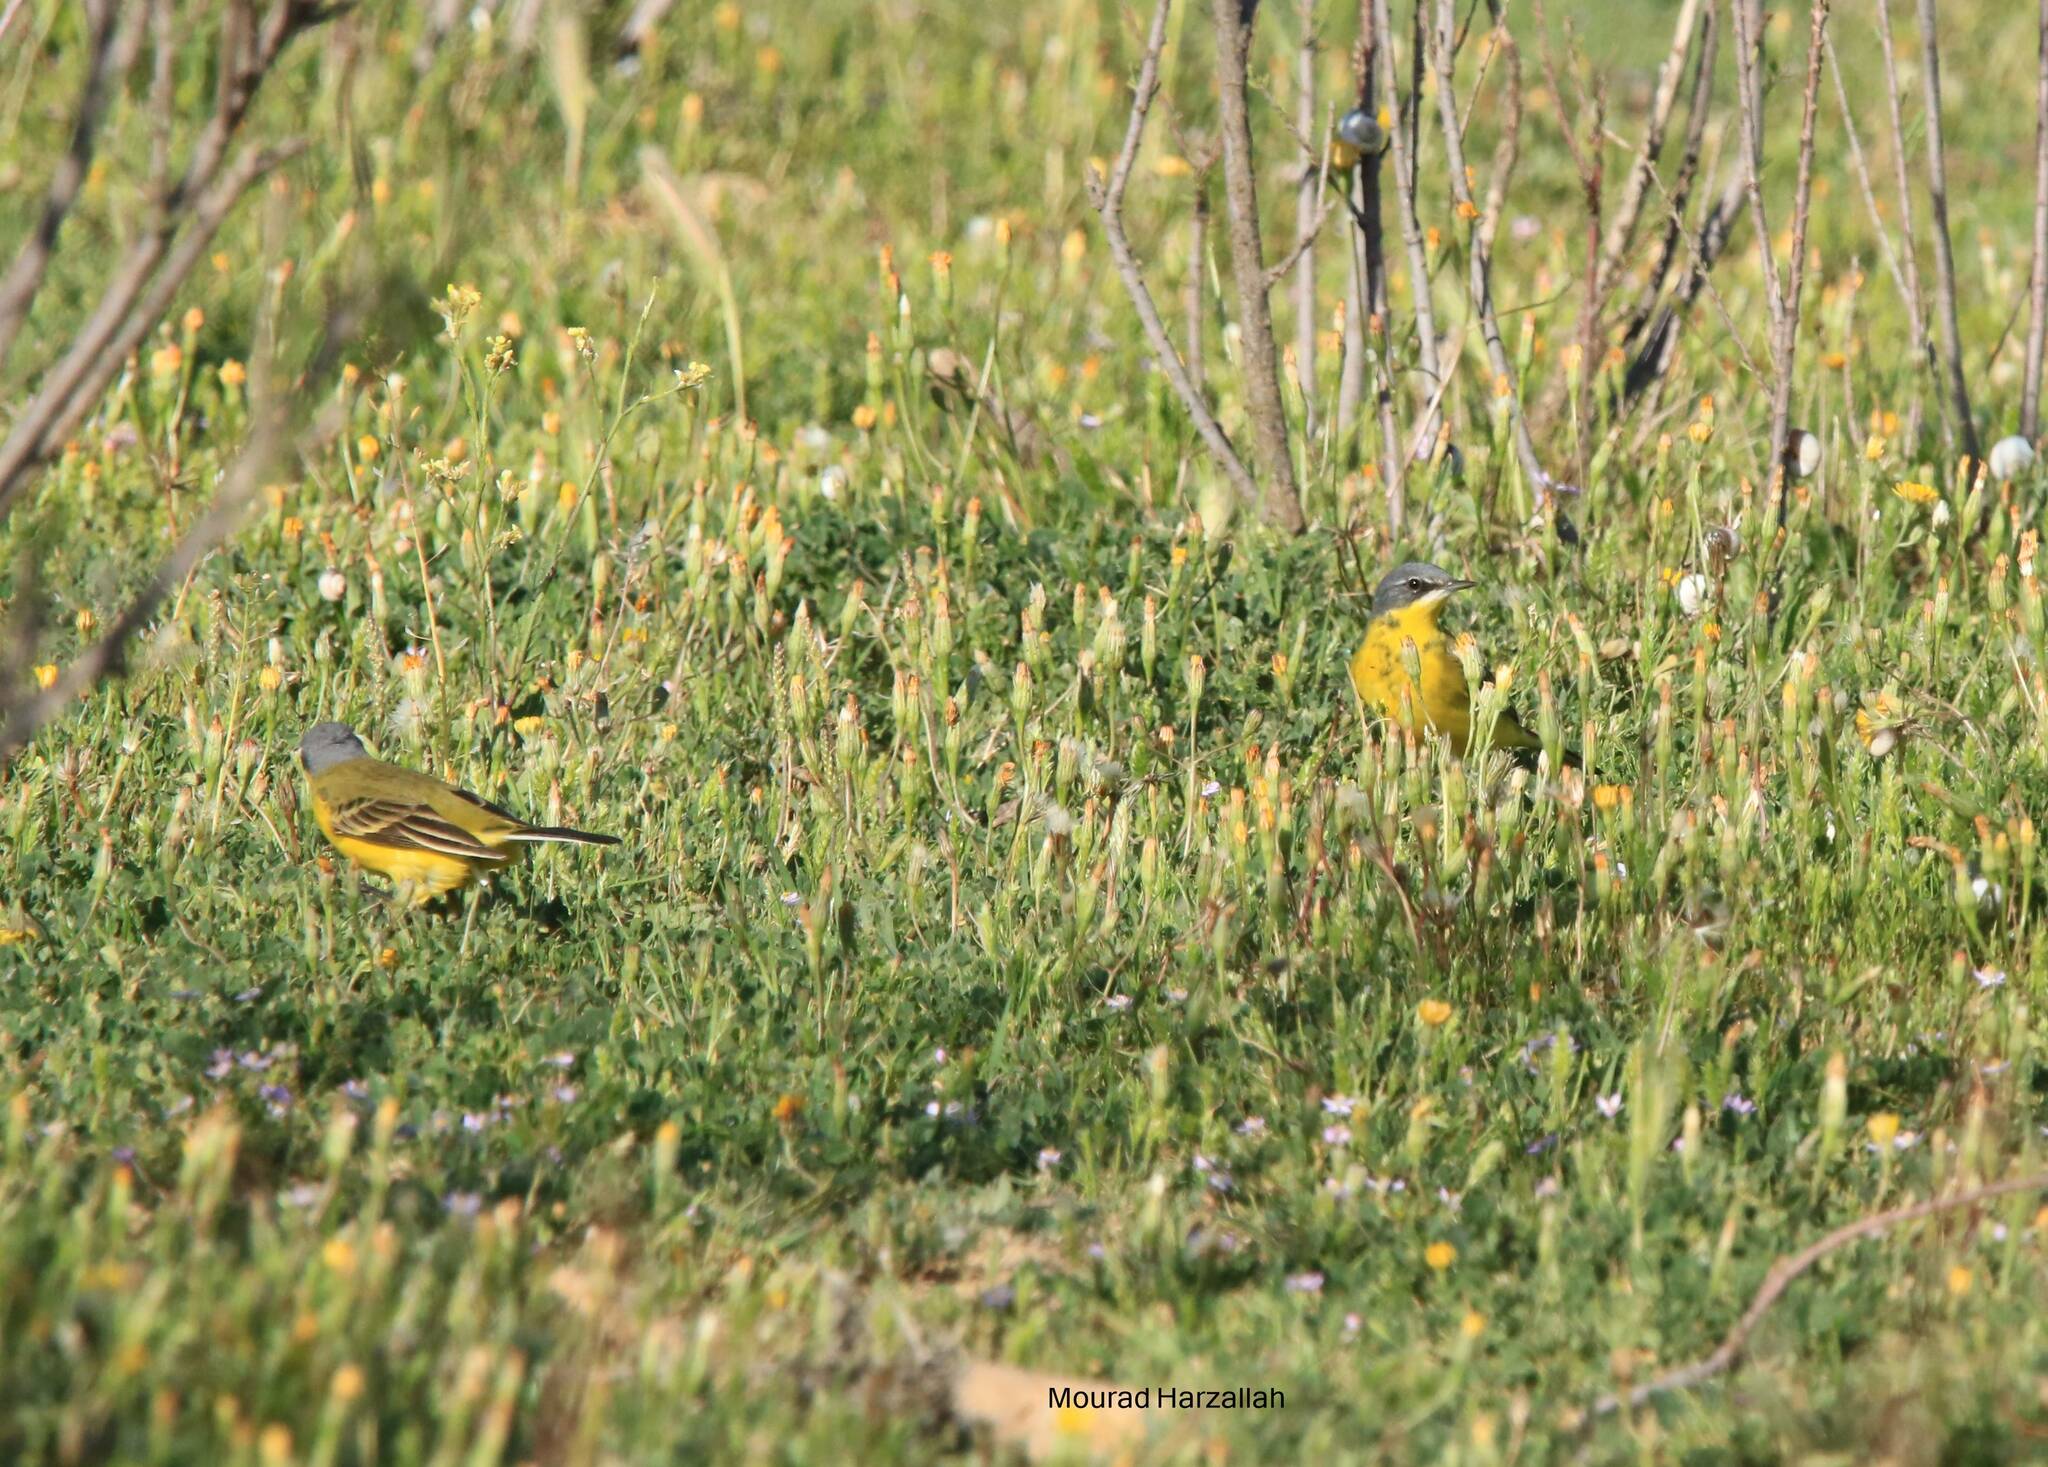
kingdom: Animalia
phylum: Chordata
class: Aves
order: Passeriformes
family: Motacillidae
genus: Motacilla
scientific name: Motacilla flava
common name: Western yellow wagtail
